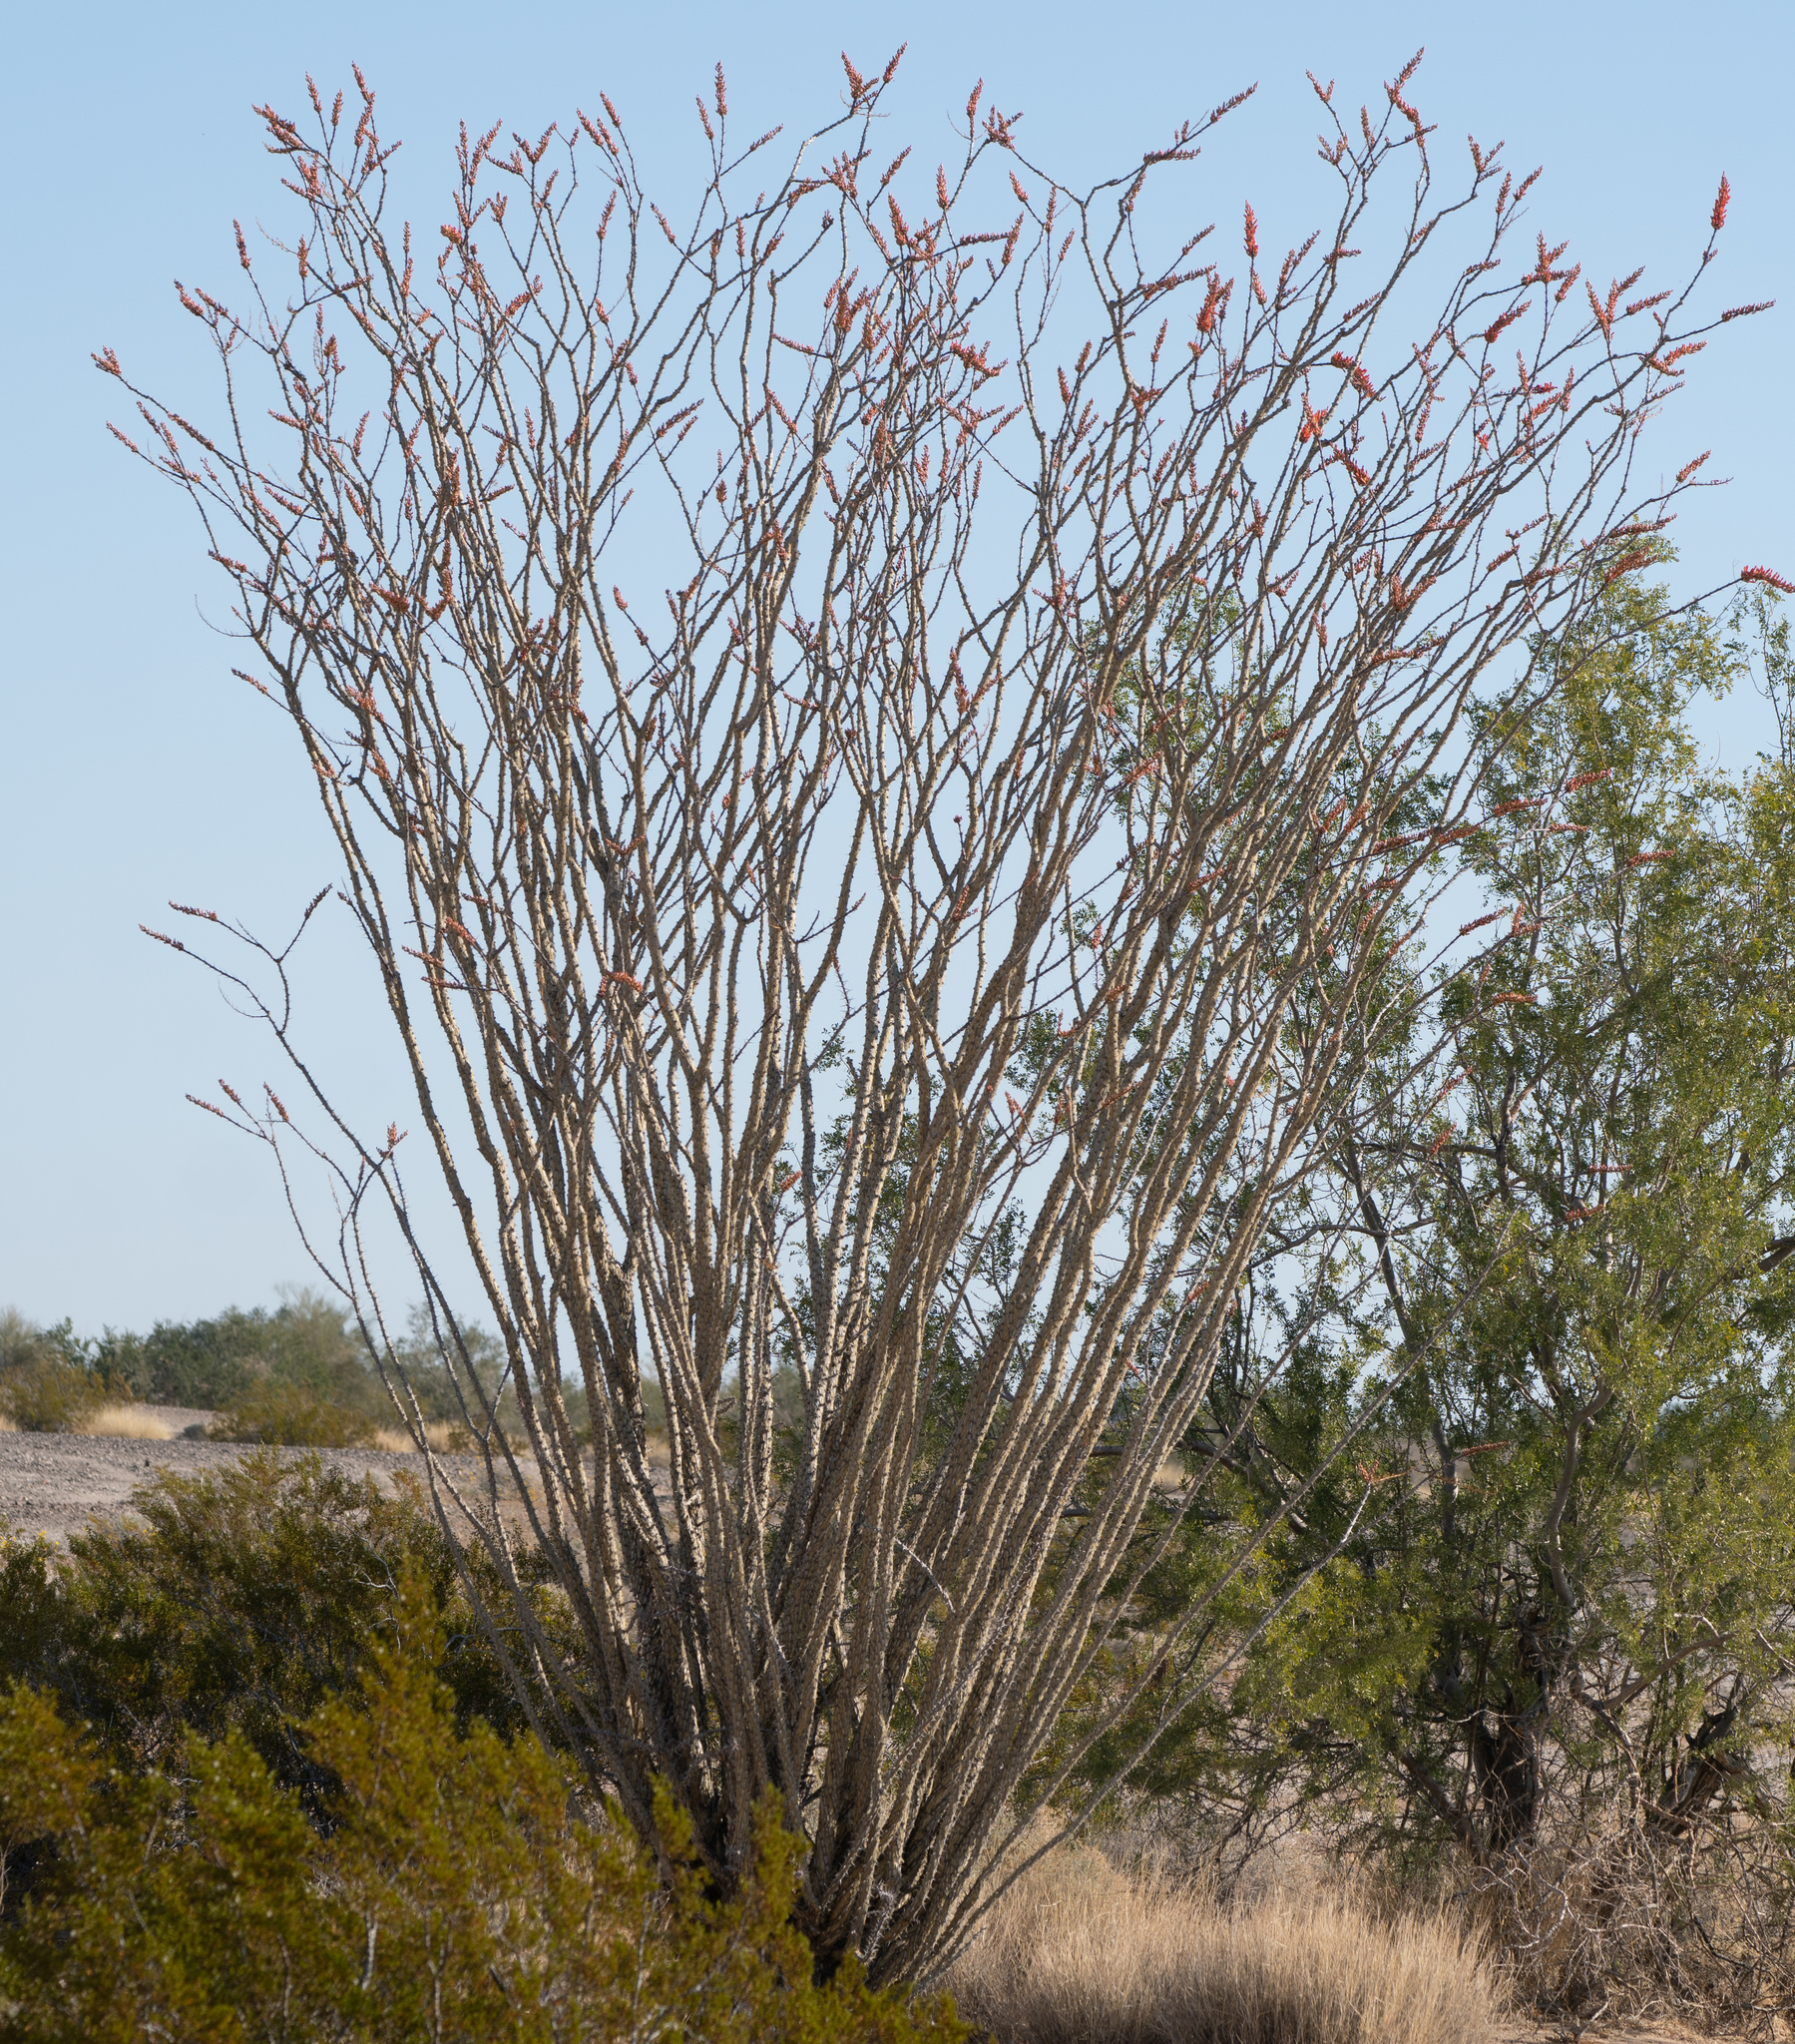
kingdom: Plantae
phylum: Tracheophyta
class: Magnoliopsida
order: Ericales
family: Fouquieriaceae
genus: Fouquieria
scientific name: Fouquieria splendens
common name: Vine-cactus
